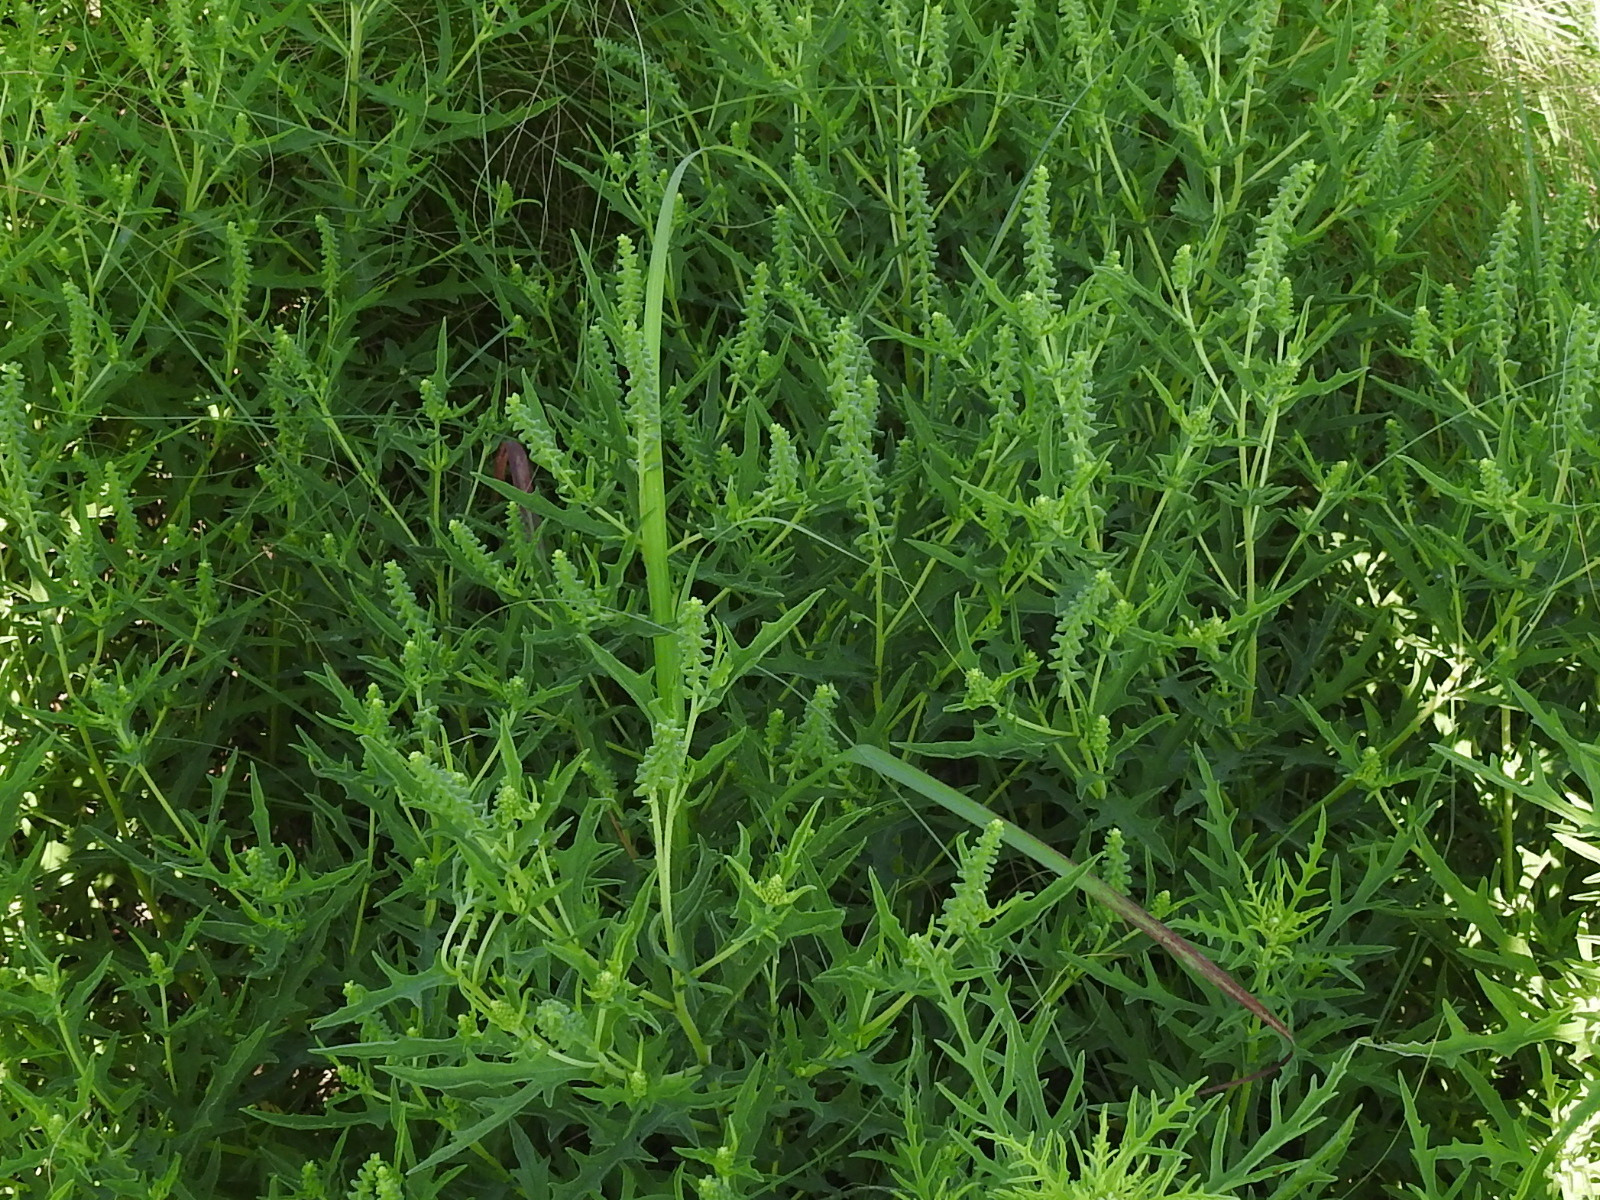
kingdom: Plantae
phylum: Tracheophyta
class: Magnoliopsida
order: Asterales
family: Asteraceae
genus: Ambrosia
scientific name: Ambrosia psilostachya
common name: Perennial ragweed
